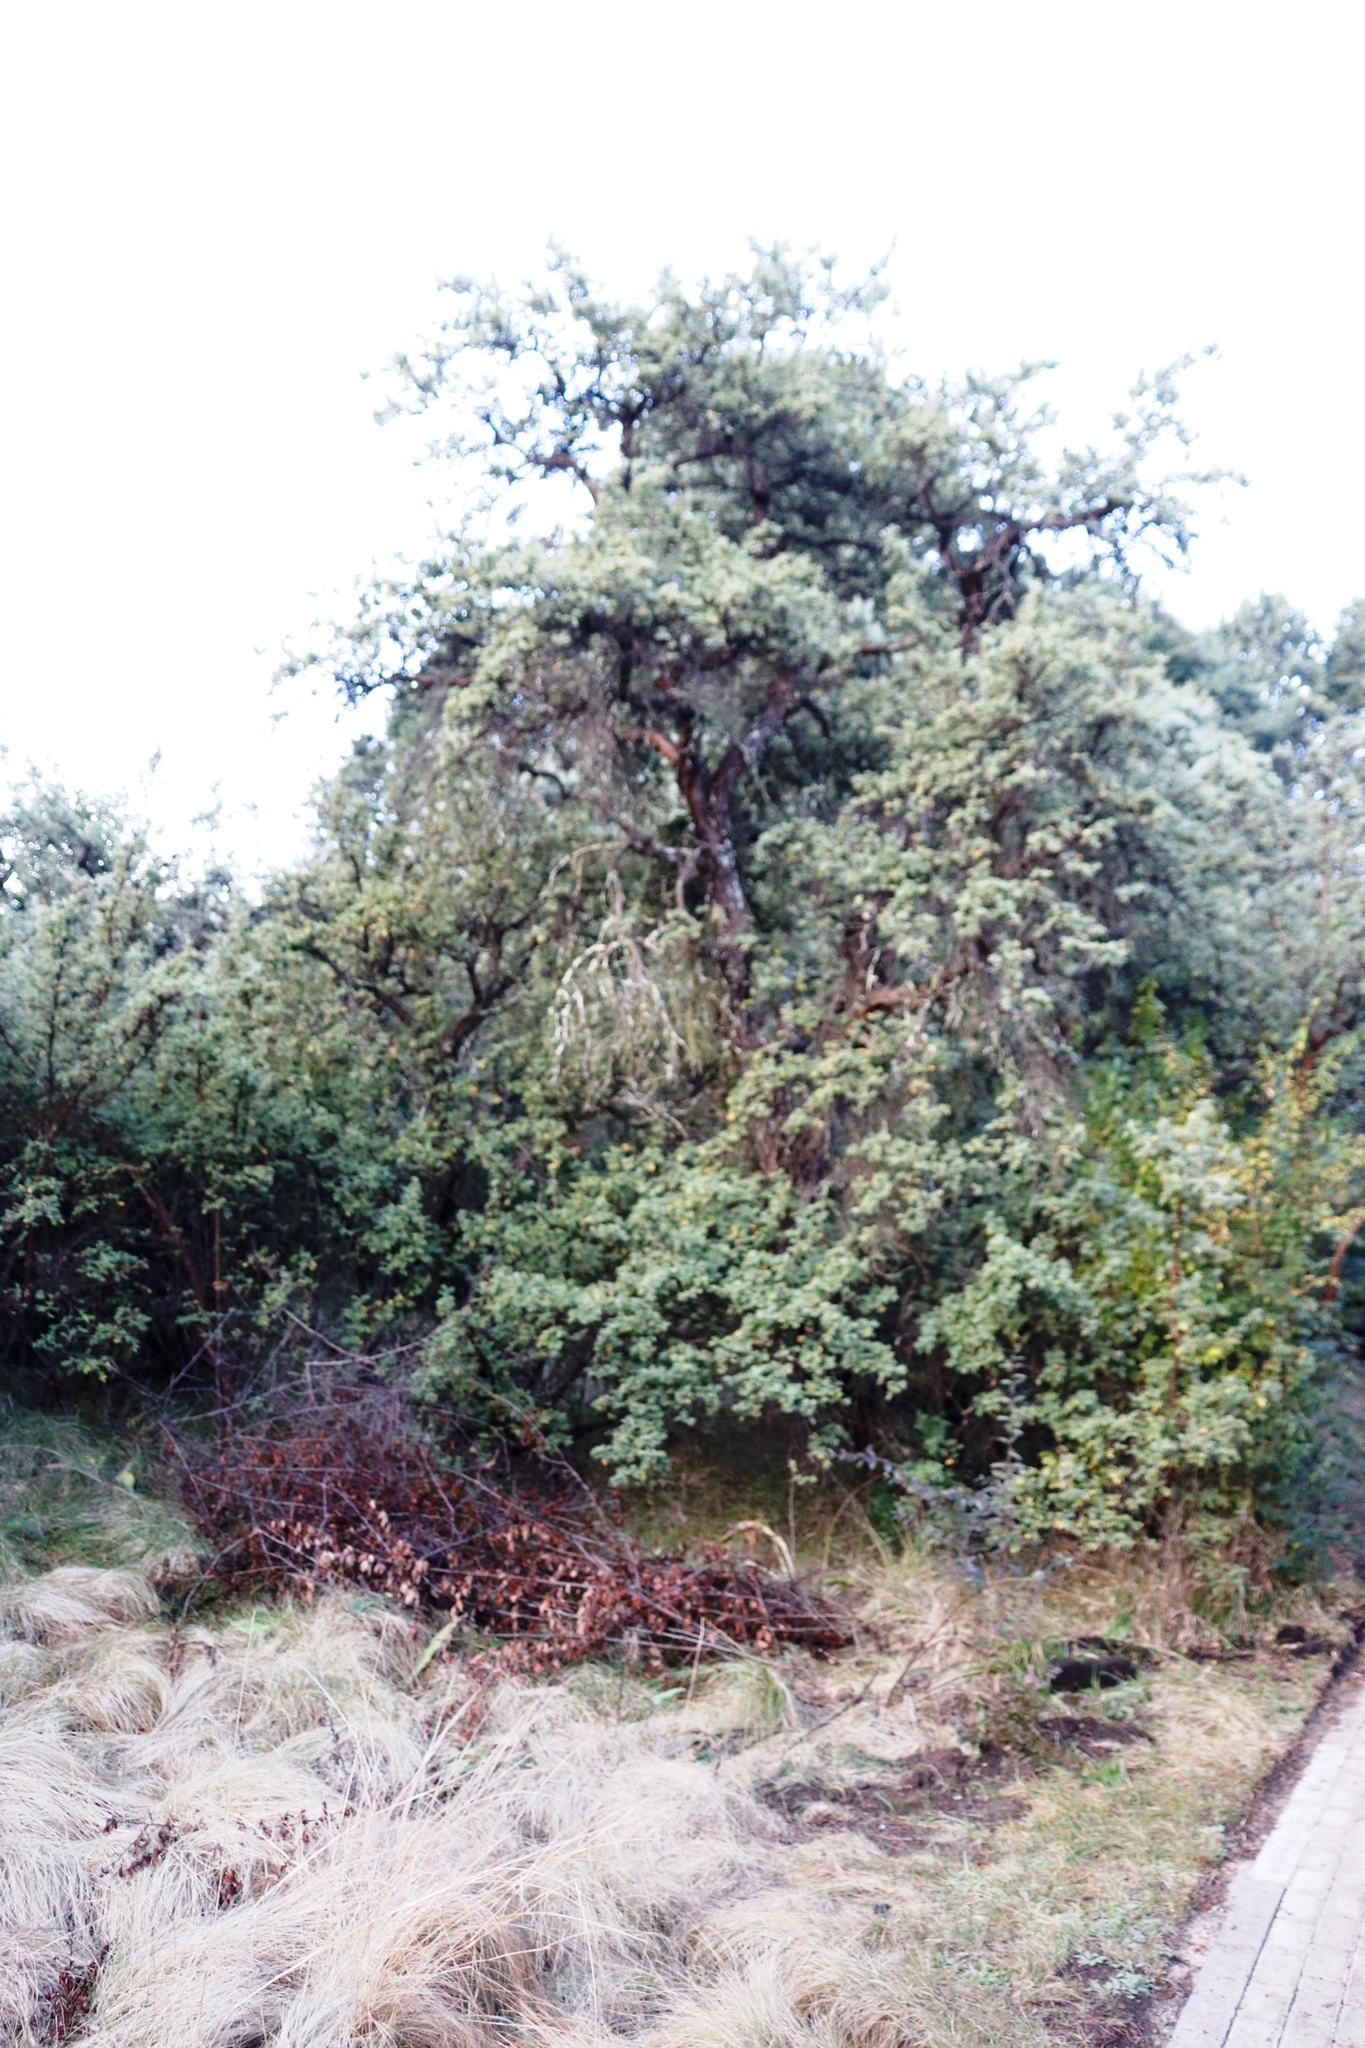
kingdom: Plantae
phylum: Tracheophyta
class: Magnoliopsida
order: Rosales
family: Rosaceae
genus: Leucosidea
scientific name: Leucosidea sericea
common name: Oldwood
